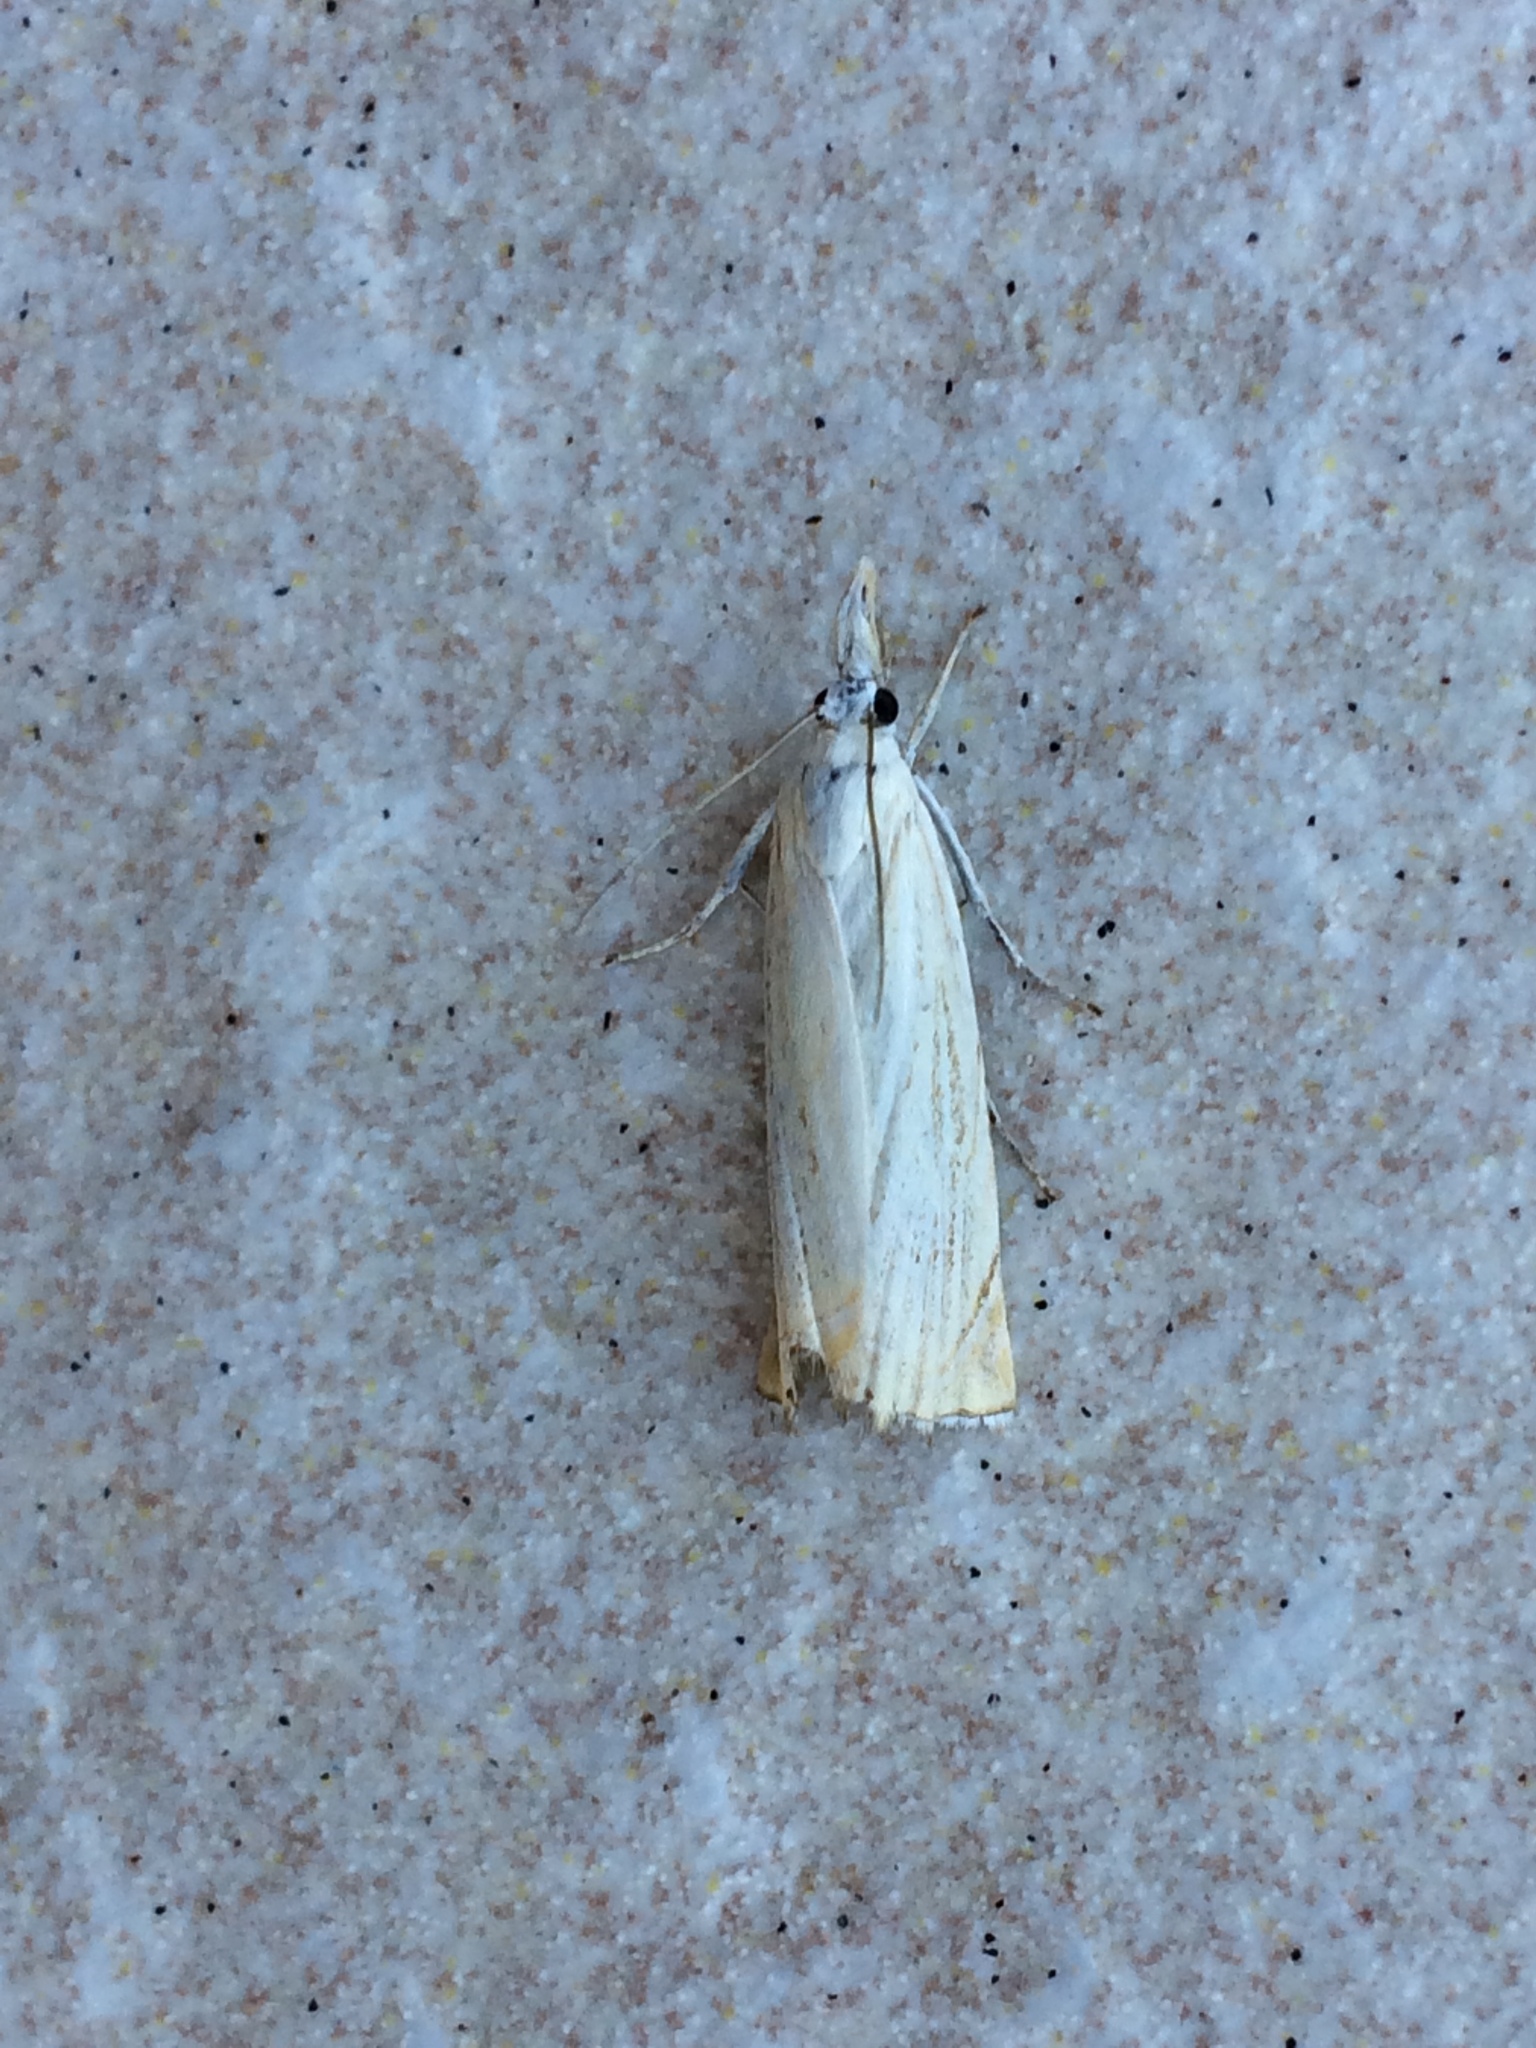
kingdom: Animalia
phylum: Arthropoda
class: Insecta
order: Lepidoptera
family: Crambidae
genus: Chrysoteuchia
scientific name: Chrysoteuchia culmella
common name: Garden grass-veneer
